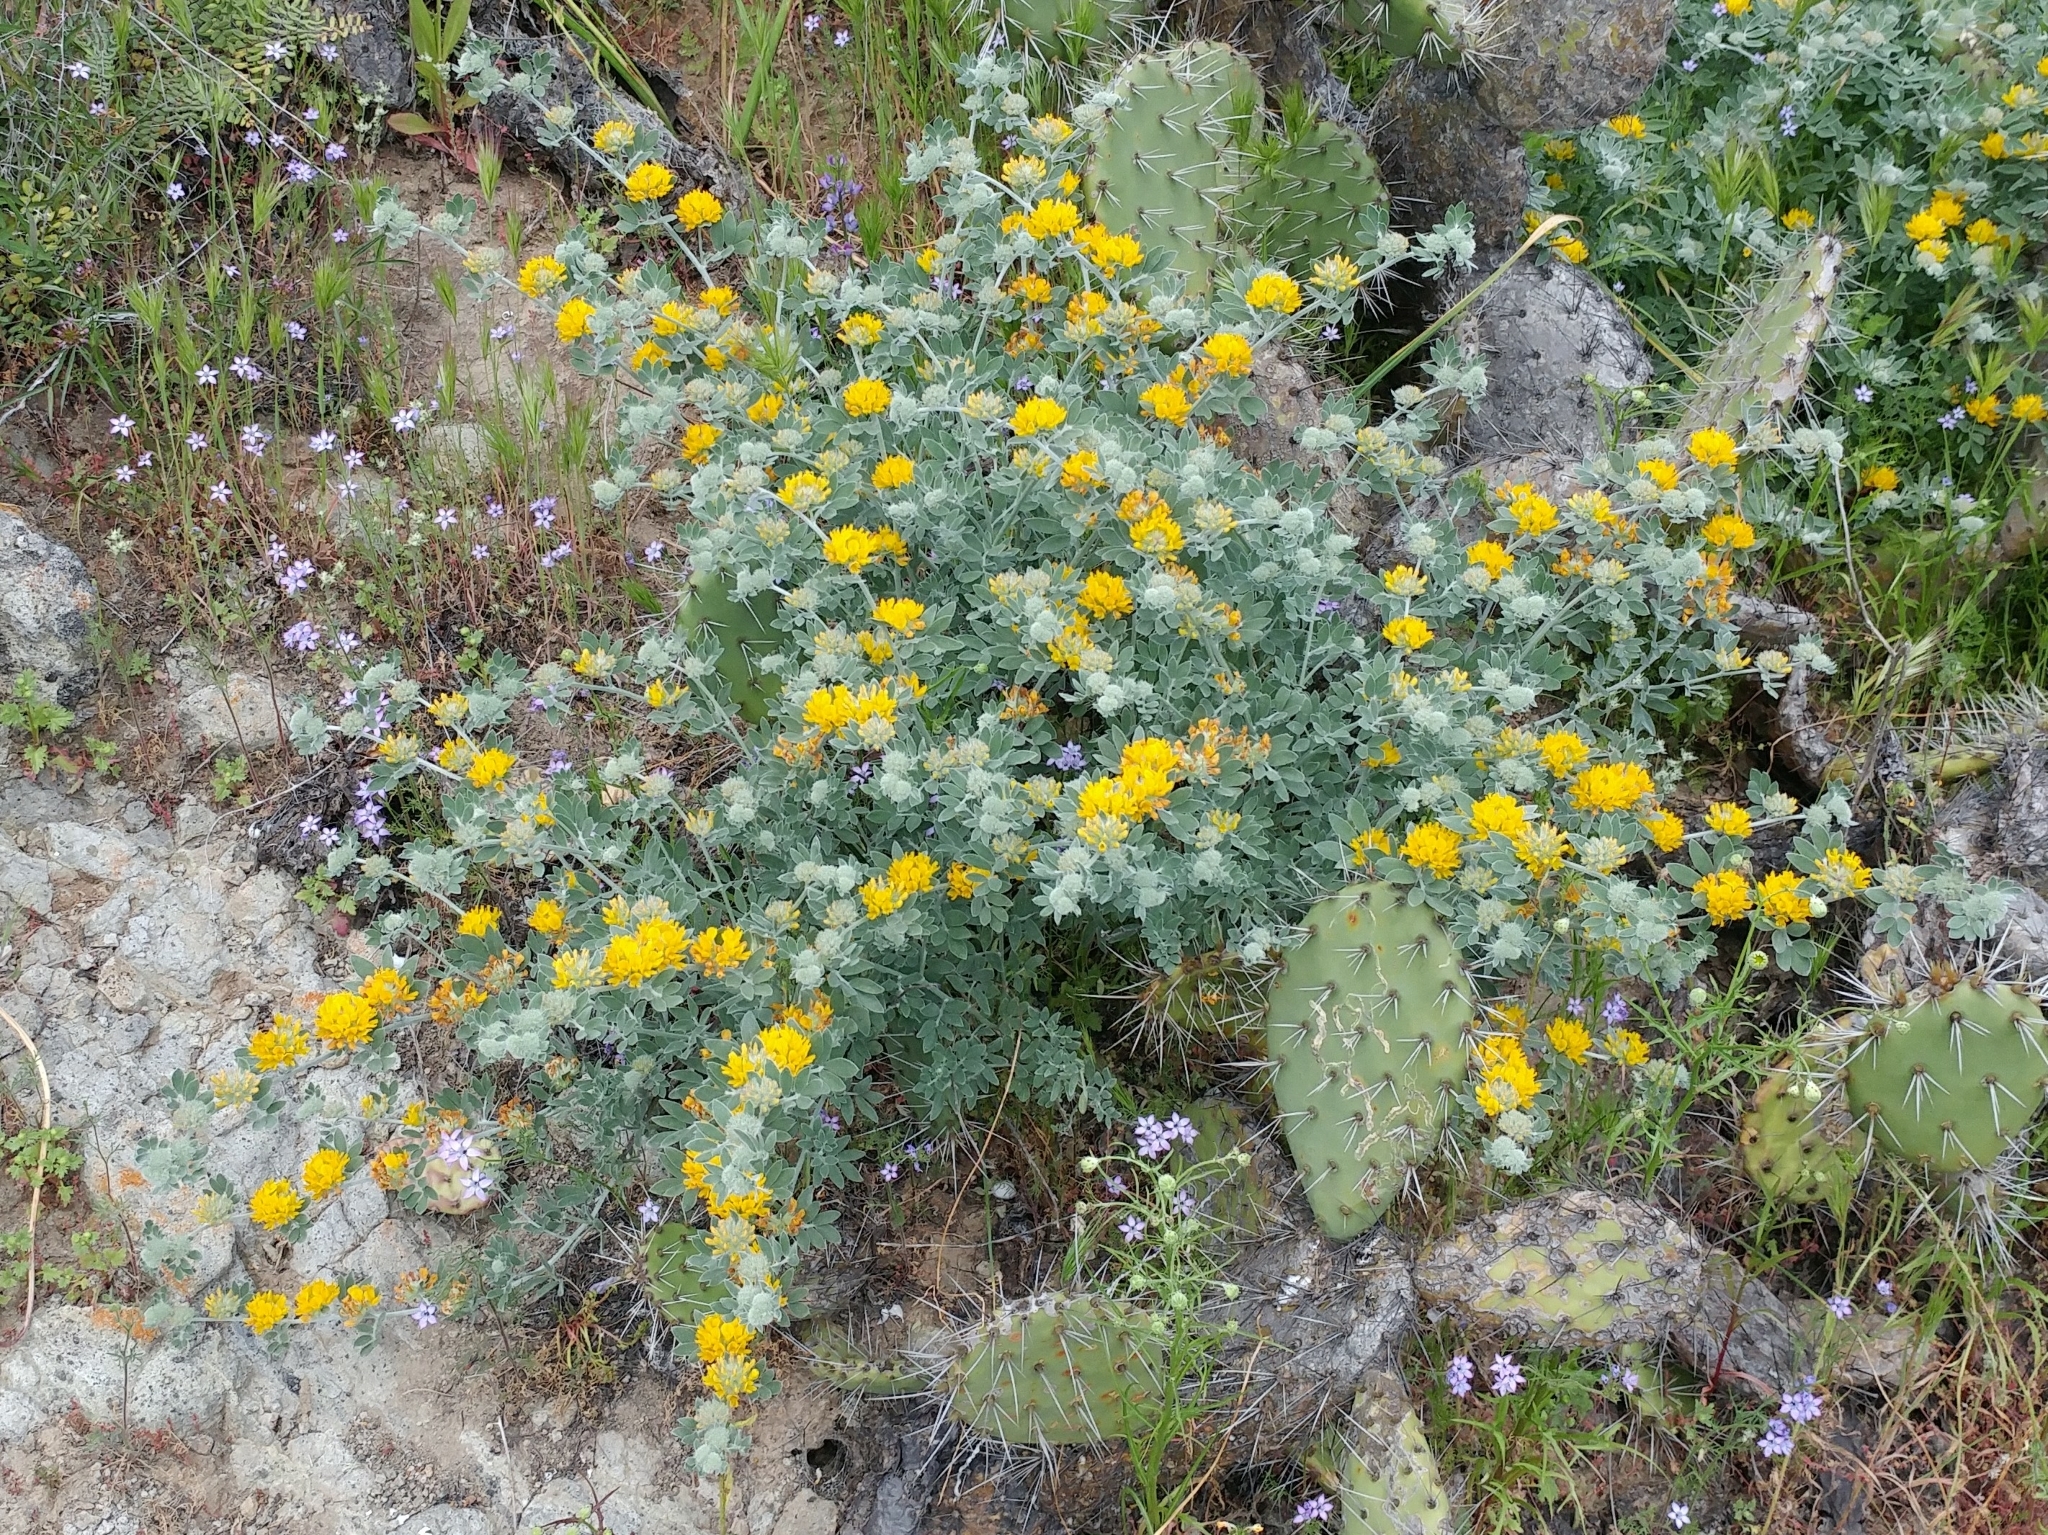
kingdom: Plantae
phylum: Tracheophyta
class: Magnoliopsida
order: Fabales
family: Fabaceae
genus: Acmispon
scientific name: Acmispon argophyllus
